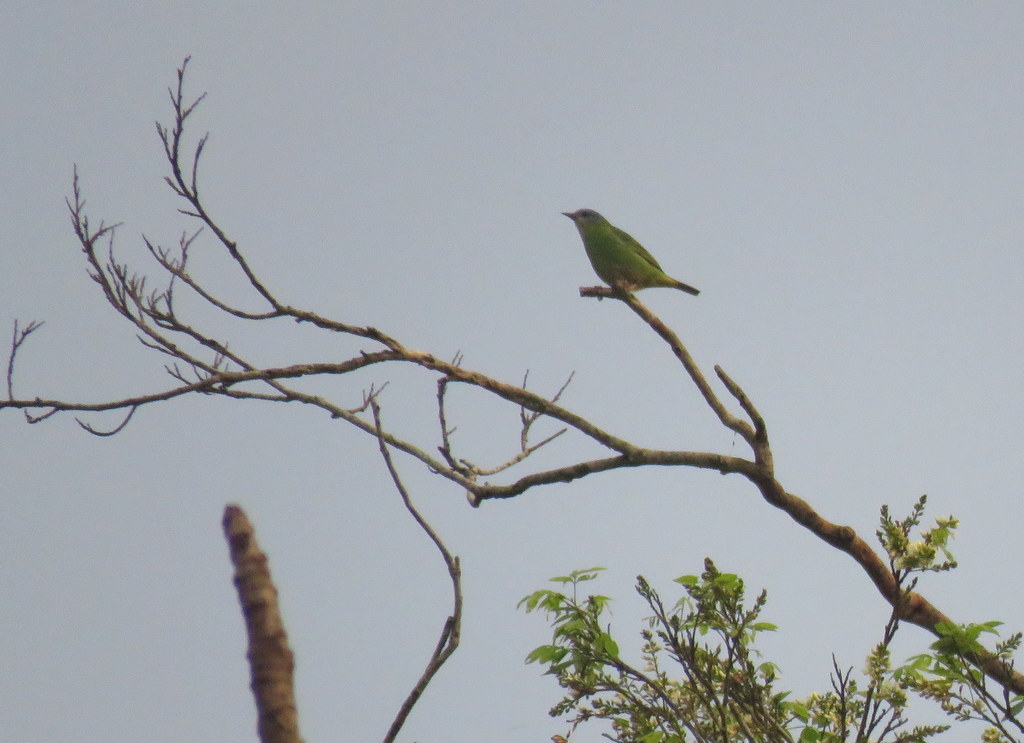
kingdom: Animalia
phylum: Chordata
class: Aves
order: Passeriformes
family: Thraupidae
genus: Dacnis
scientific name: Dacnis cayana
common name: Blue dacnis
